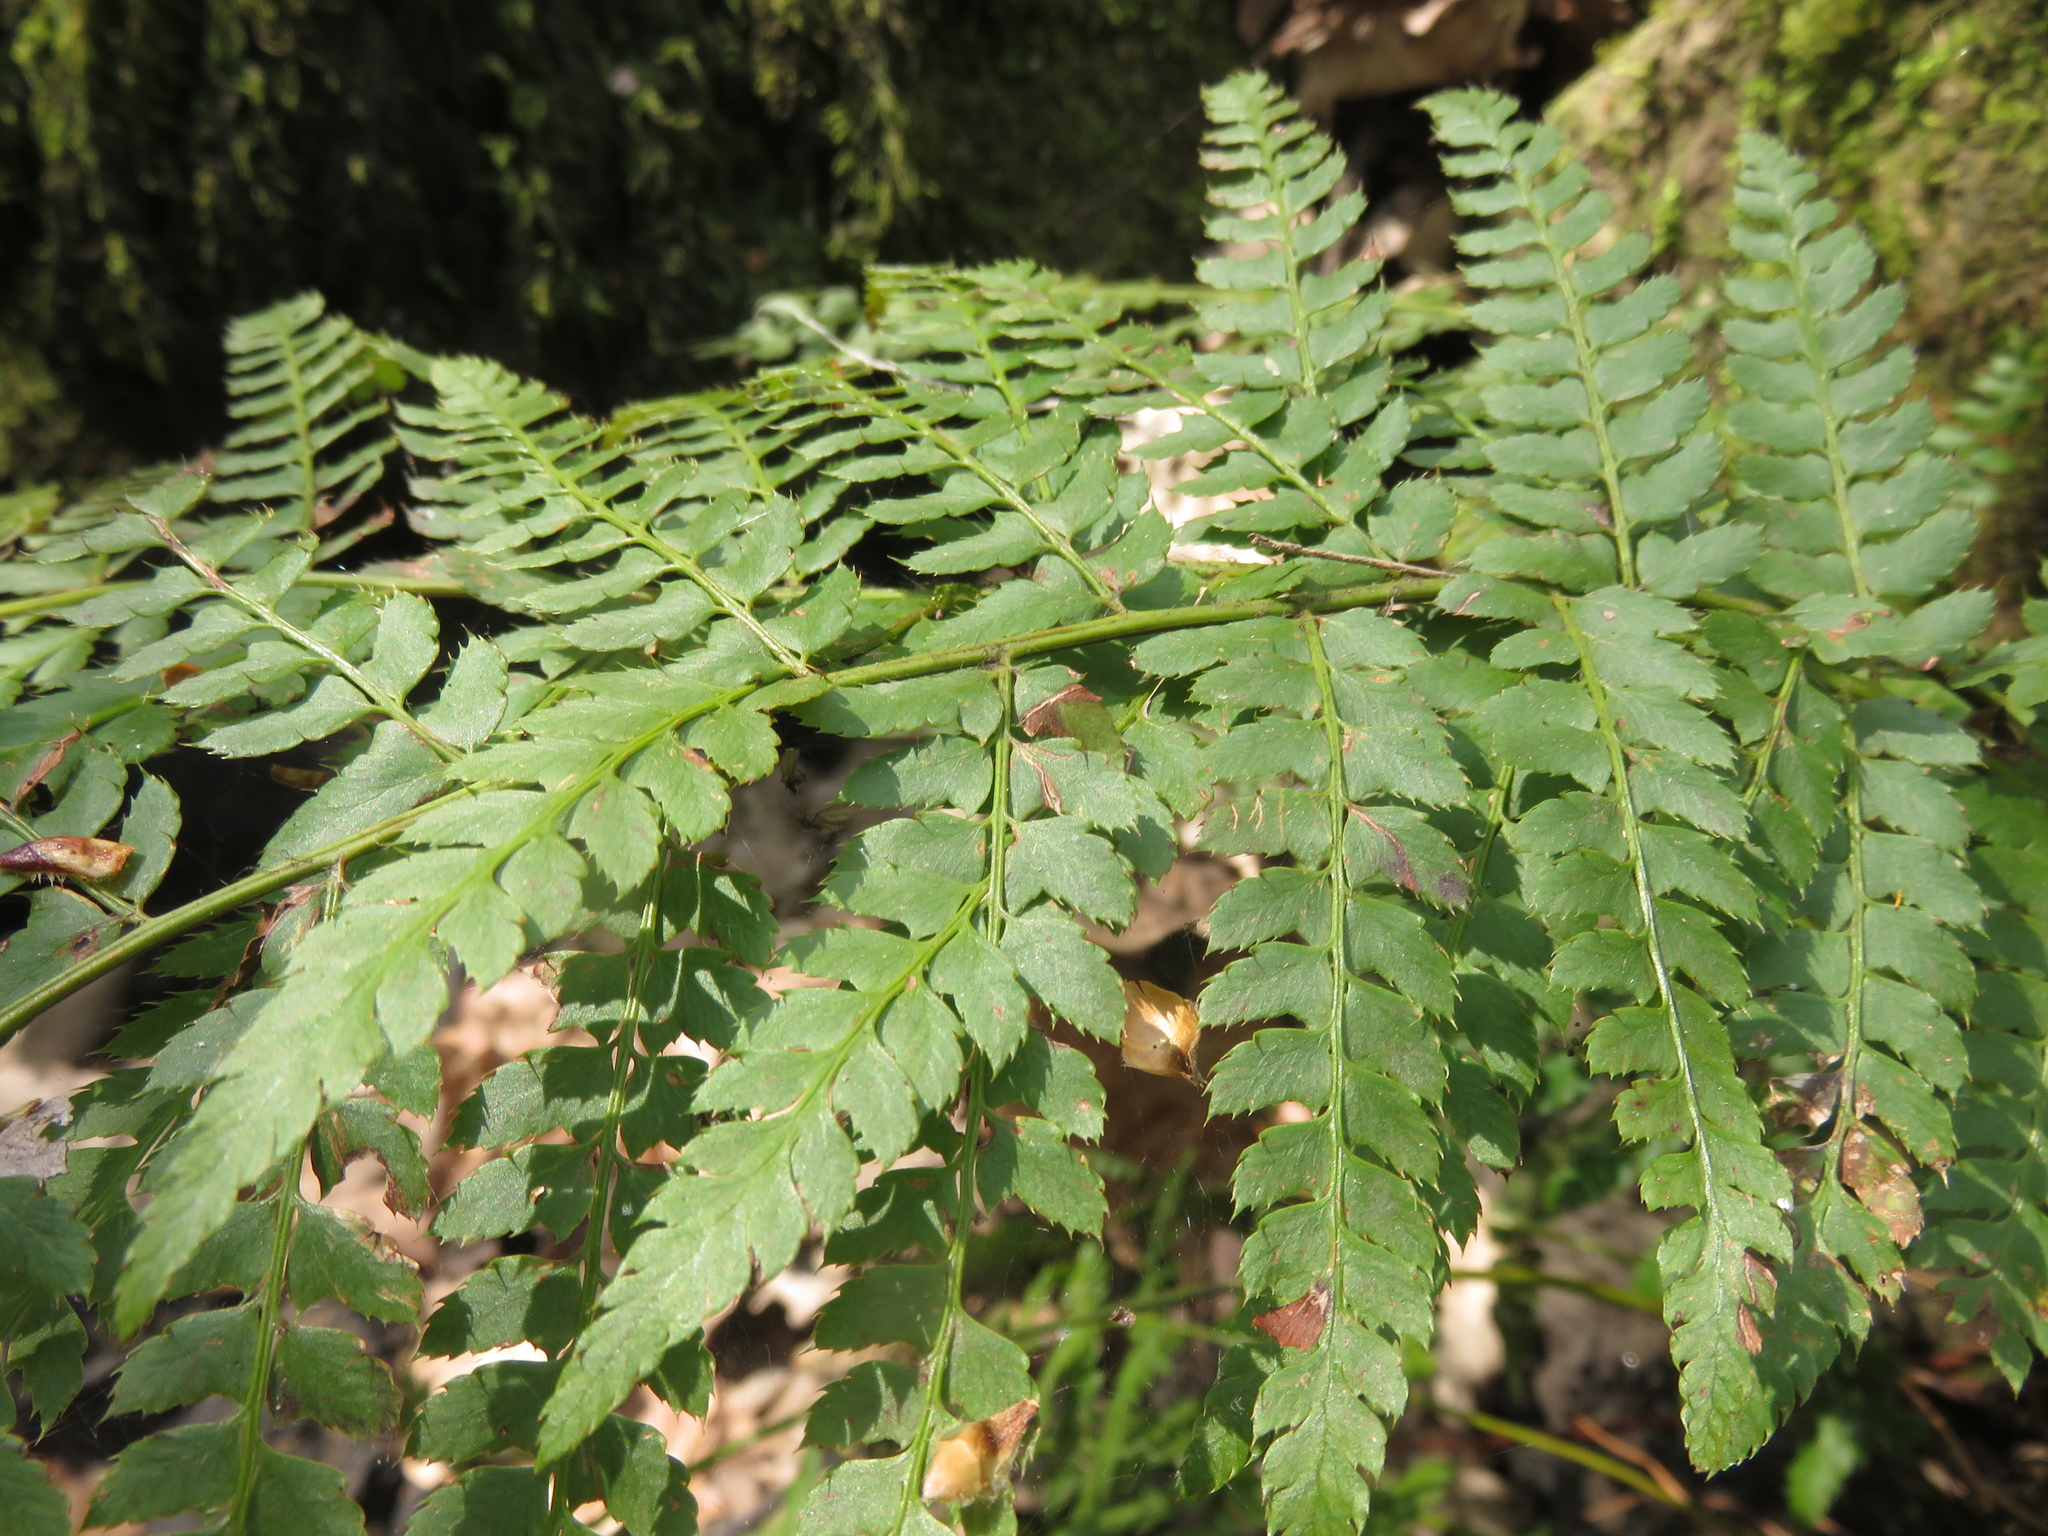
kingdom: Plantae
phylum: Tracheophyta
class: Polypodiopsida
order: Polypodiales
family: Dryopteridaceae
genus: Polystichum
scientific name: Polystichum setiferum
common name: Soft shield-fern
